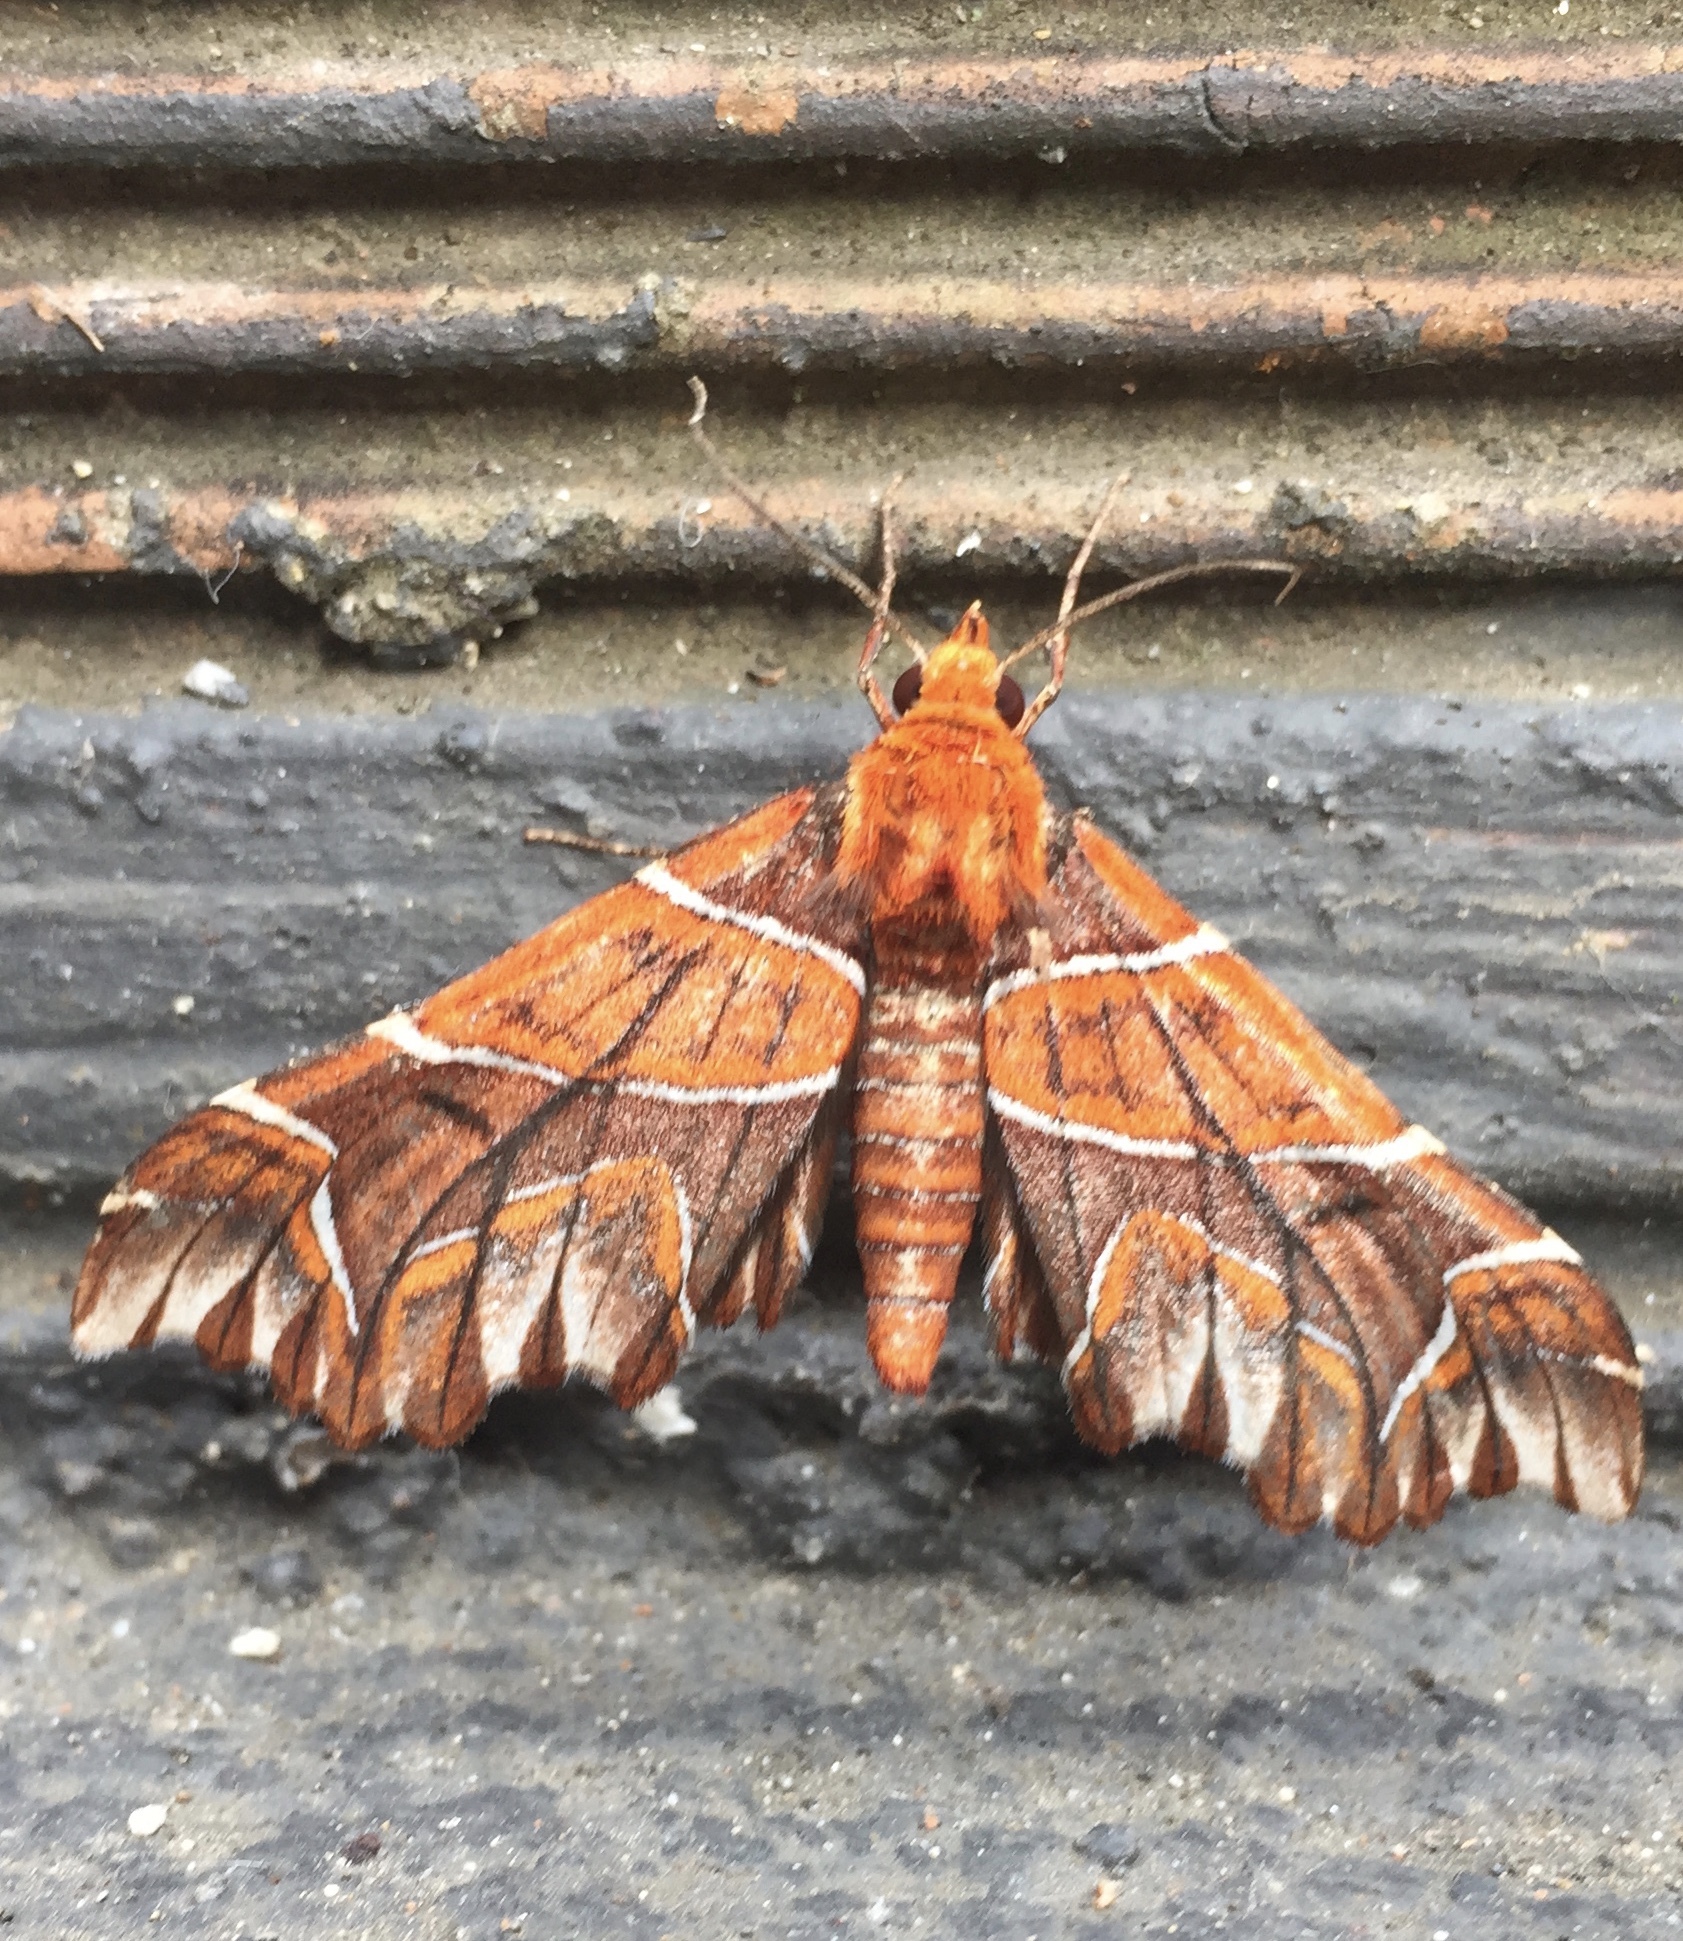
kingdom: Animalia
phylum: Arthropoda
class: Insecta
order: Lepidoptera
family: Geometridae
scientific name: Geometridae
